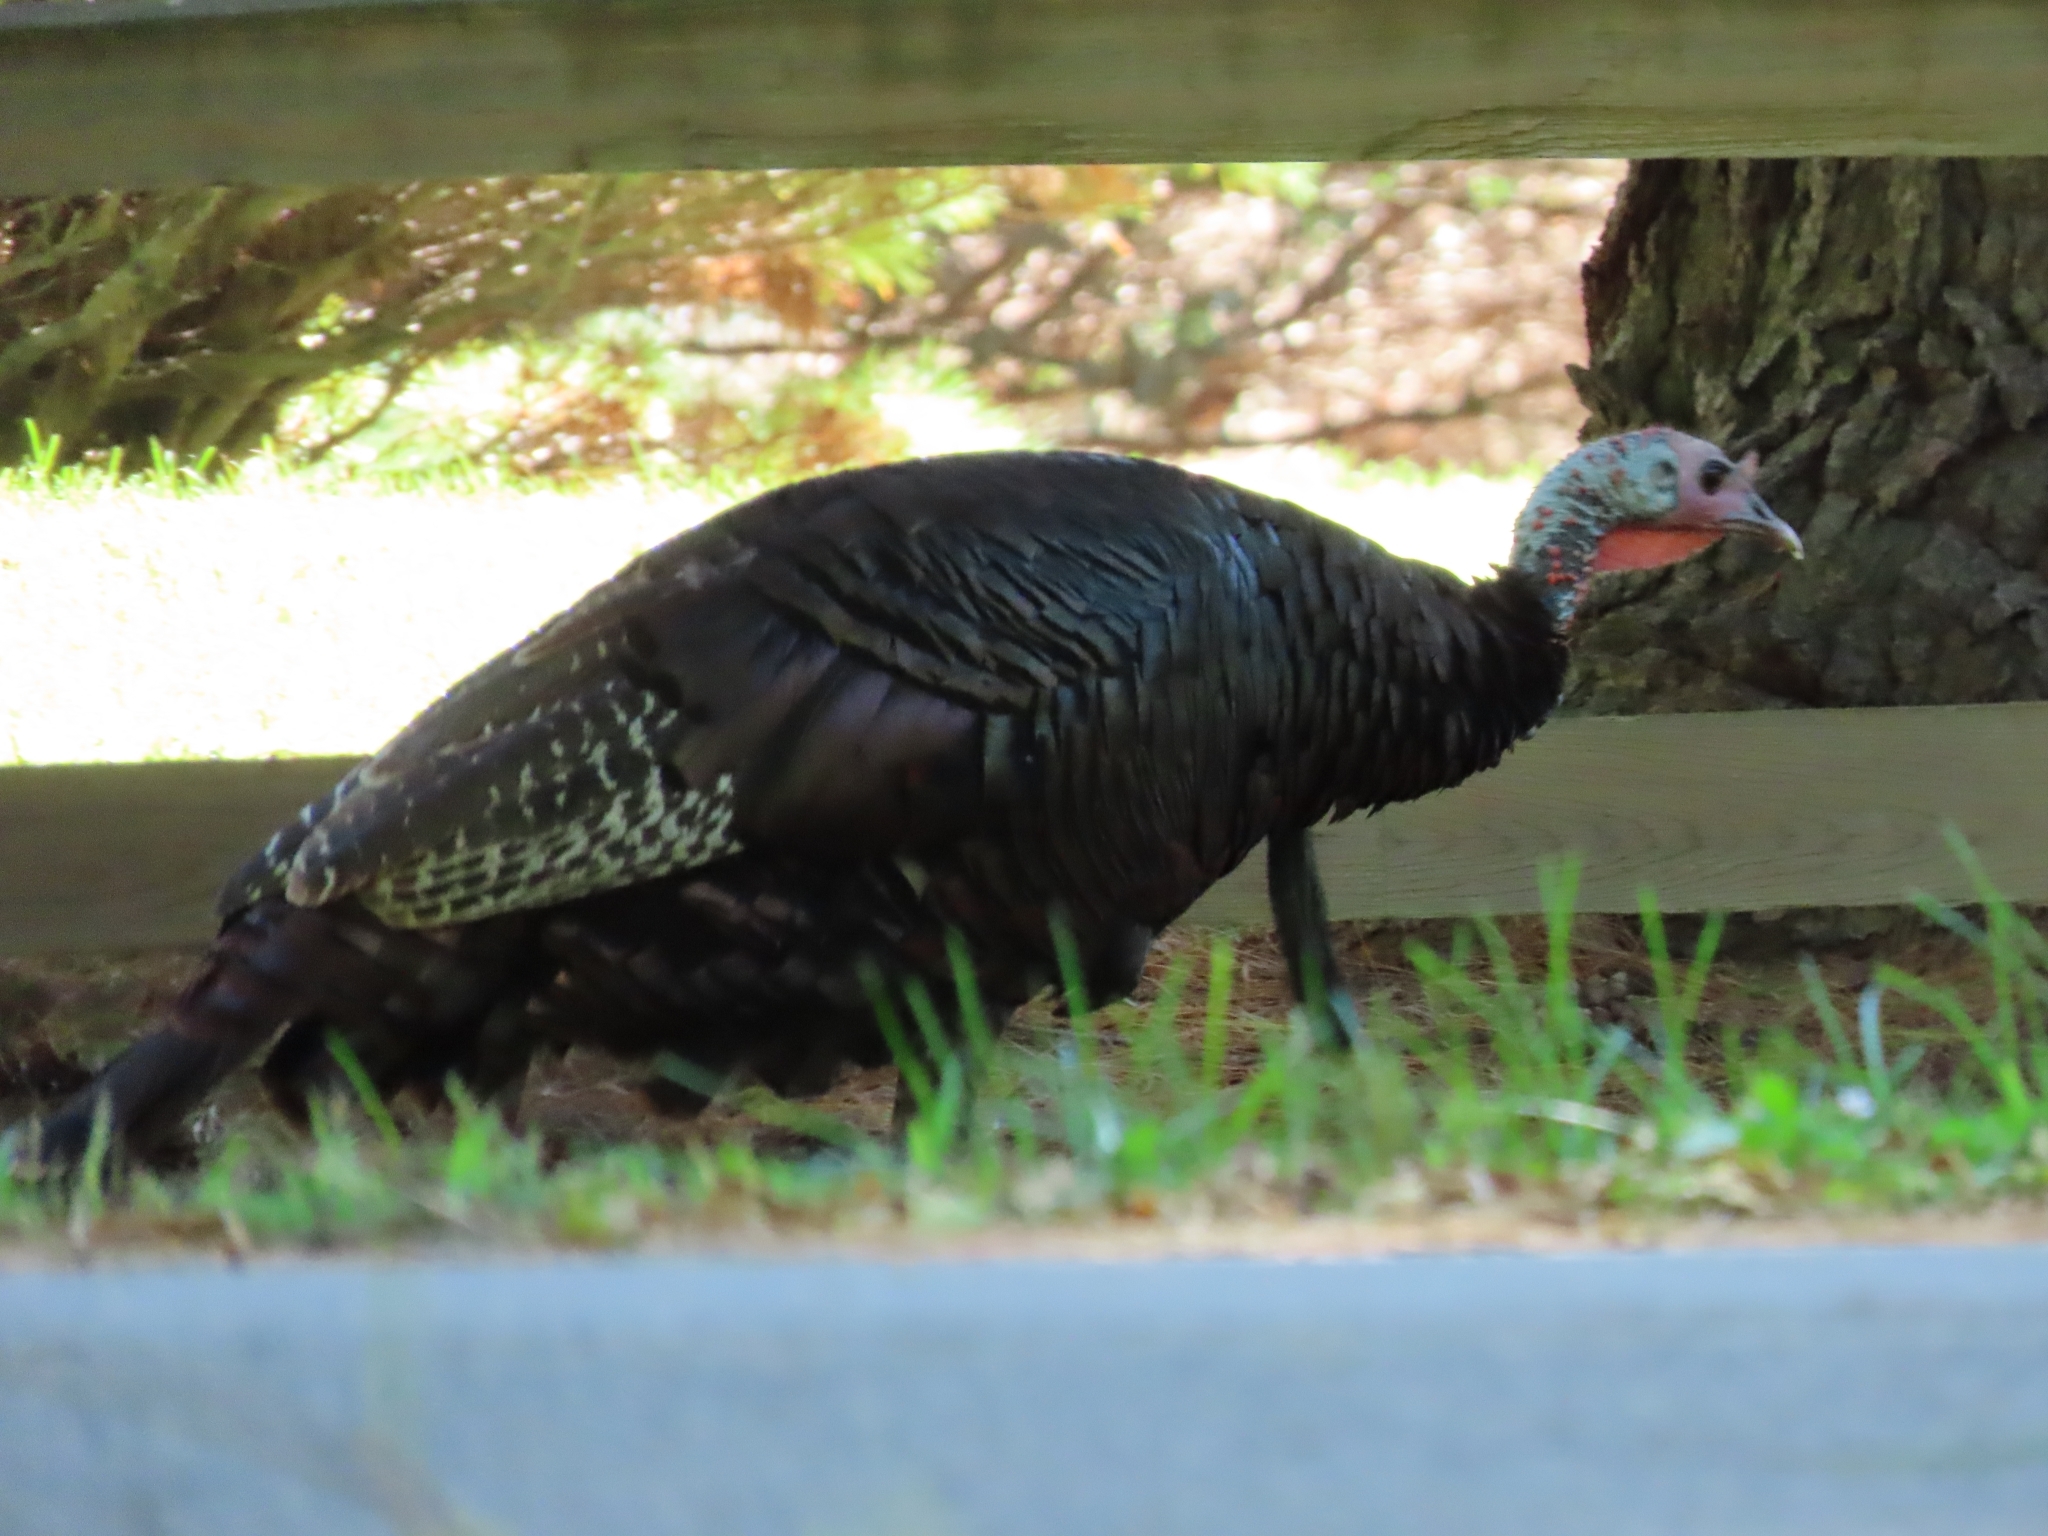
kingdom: Animalia
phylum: Chordata
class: Aves
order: Galliformes
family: Phasianidae
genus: Meleagris
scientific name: Meleagris gallopavo
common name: Wild turkey
